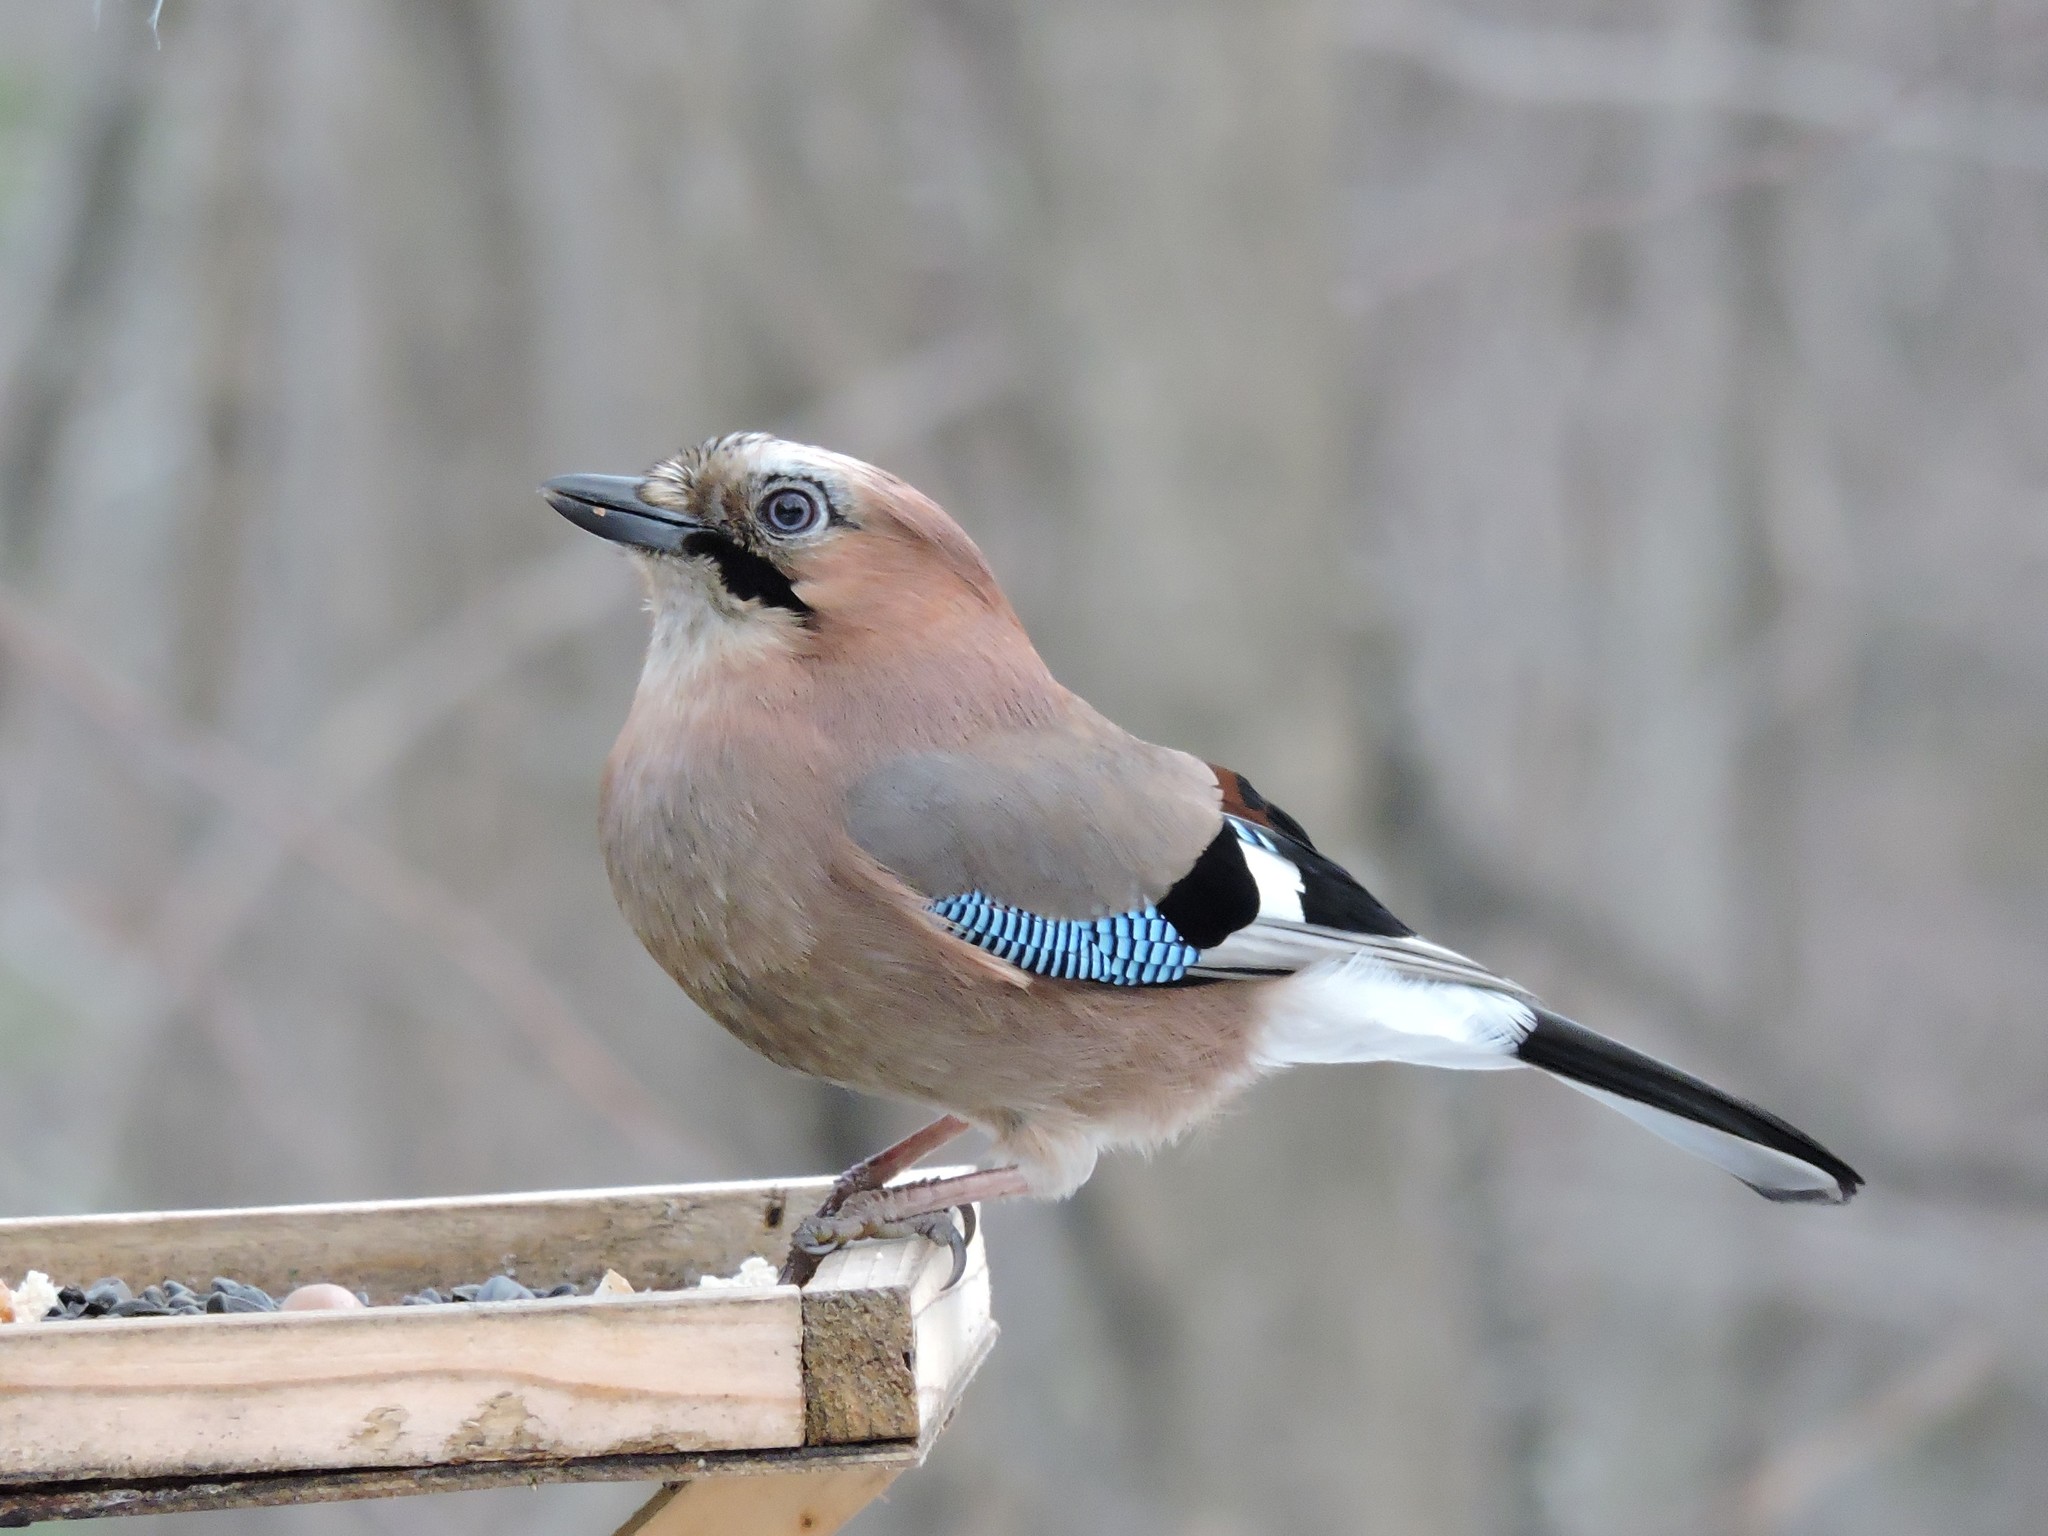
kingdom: Animalia
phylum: Chordata
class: Aves
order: Passeriformes
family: Corvidae
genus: Garrulus
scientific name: Garrulus glandarius
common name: Eurasian jay
